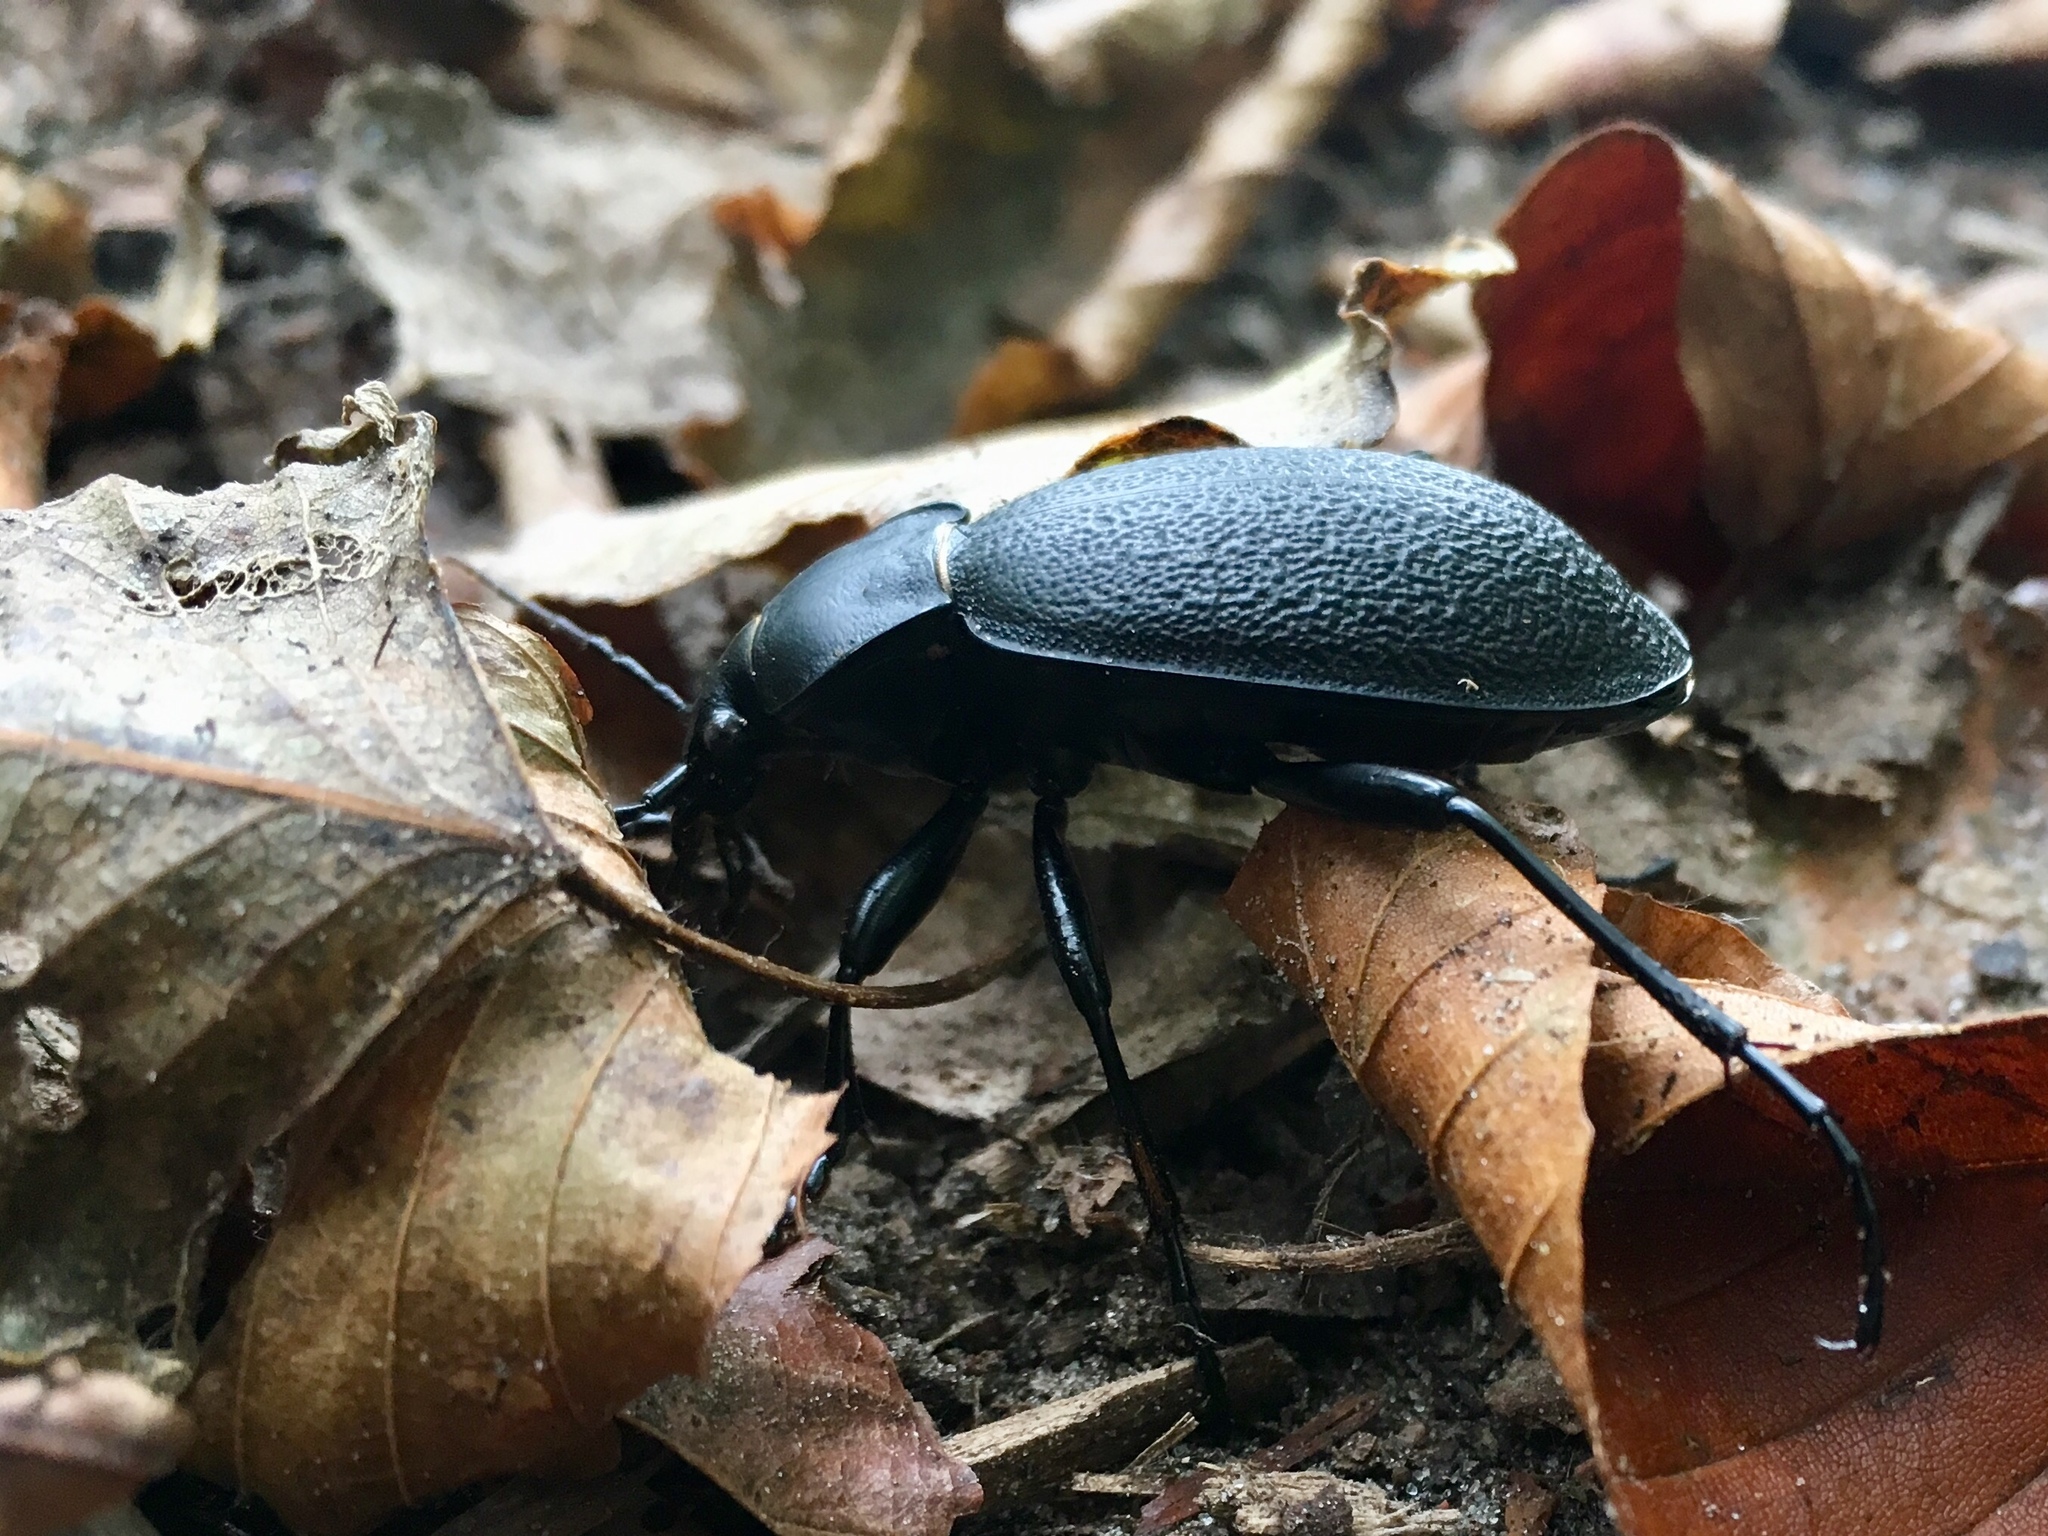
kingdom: Animalia
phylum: Arthropoda
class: Insecta
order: Coleoptera
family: Carabidae
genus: Carabus
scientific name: Carabus coriaceus
